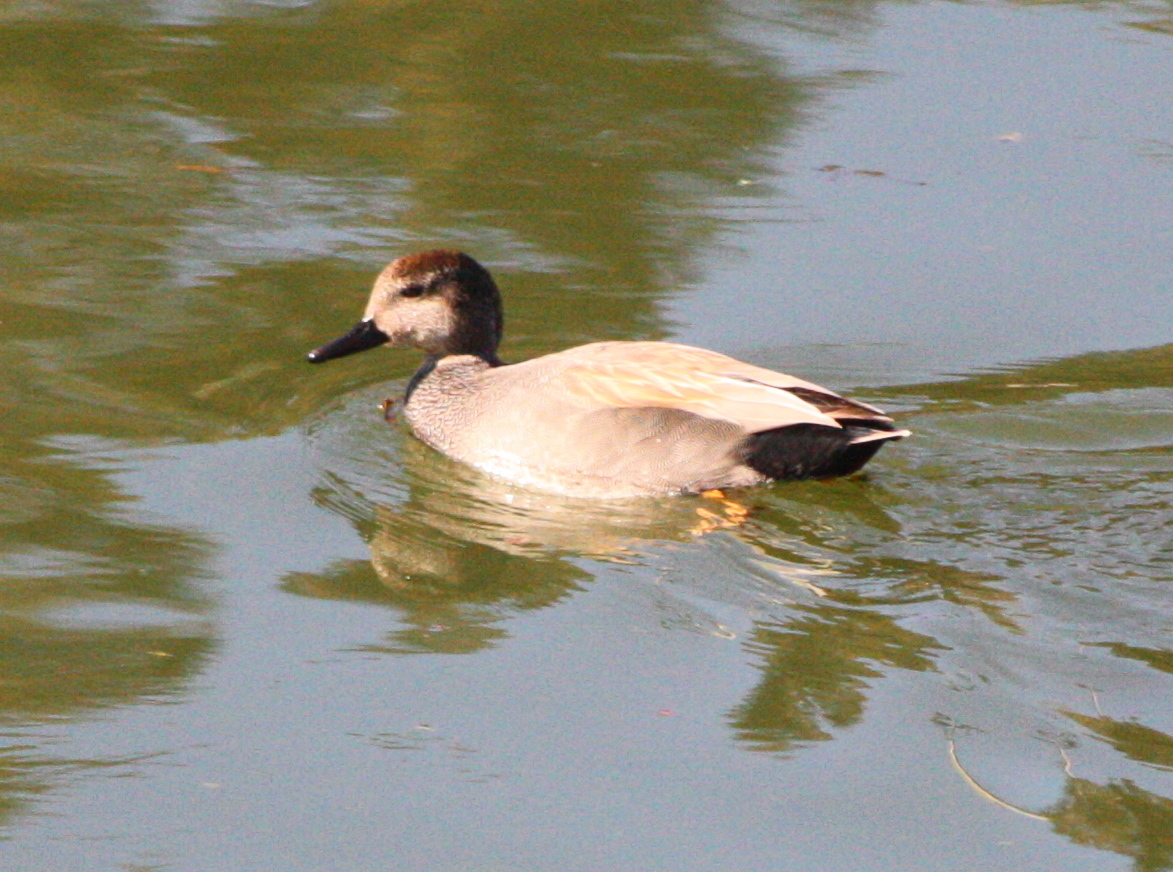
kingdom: Animalia
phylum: Chordata
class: Aves
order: Anseriformes
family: Anatidae
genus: Mareca
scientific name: Mareca strepera
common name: Gadwall
